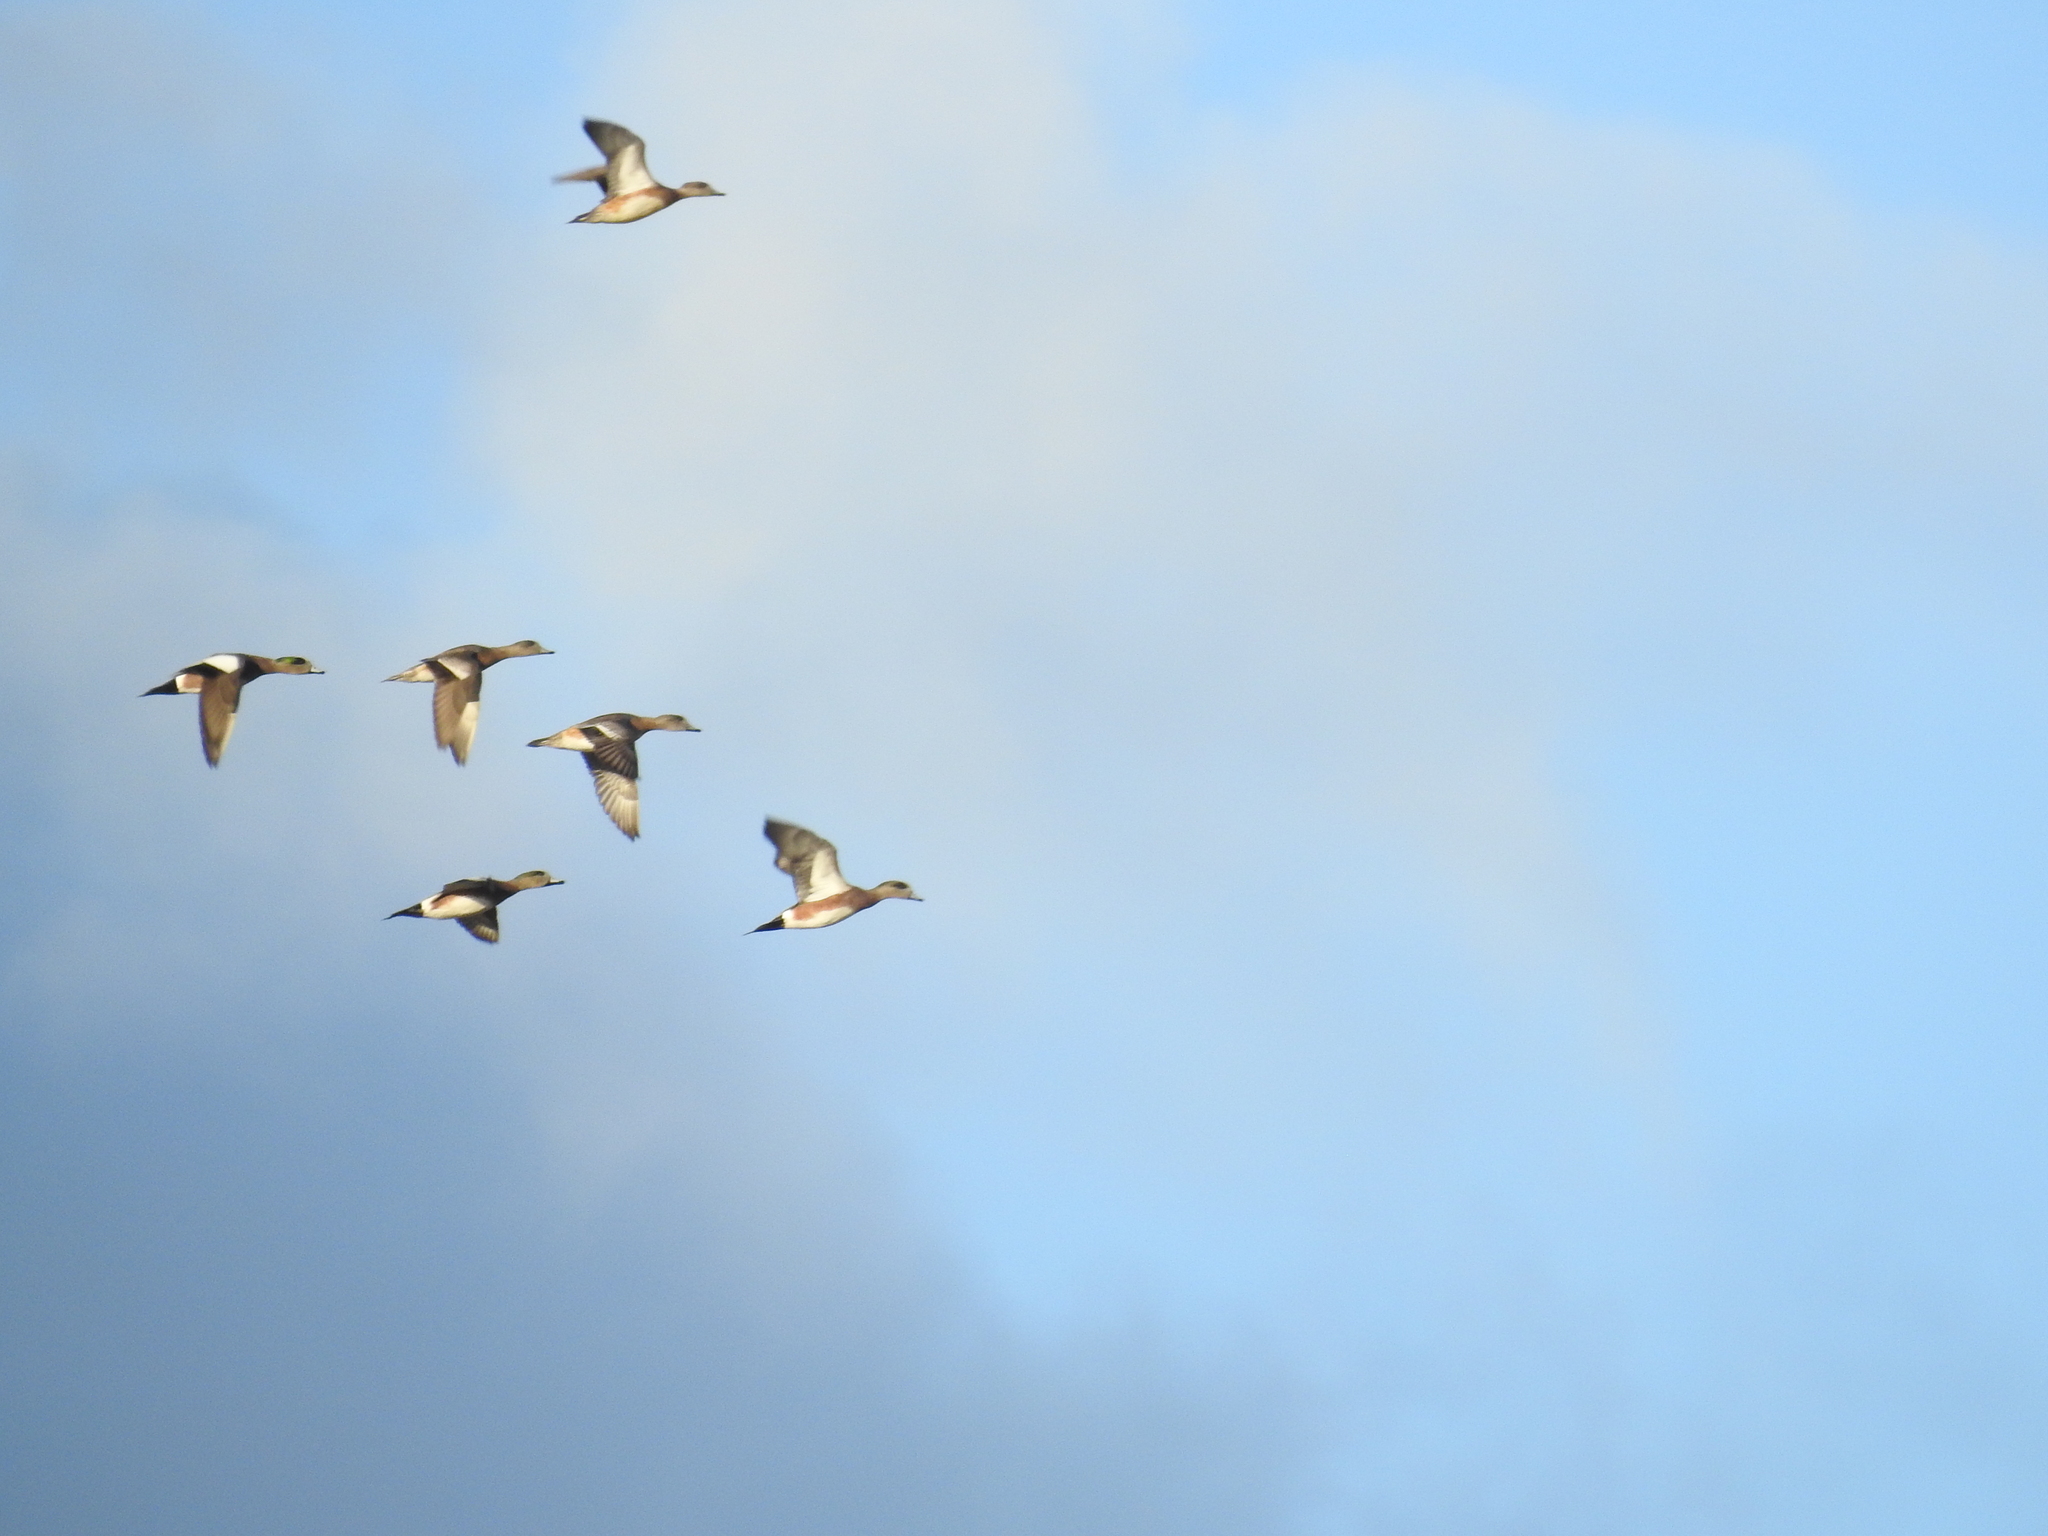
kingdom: Animalia
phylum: Chordata
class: Aves
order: Anseriformes
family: Anatidae
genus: Mareca
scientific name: Mareca americana
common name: American wigeon
